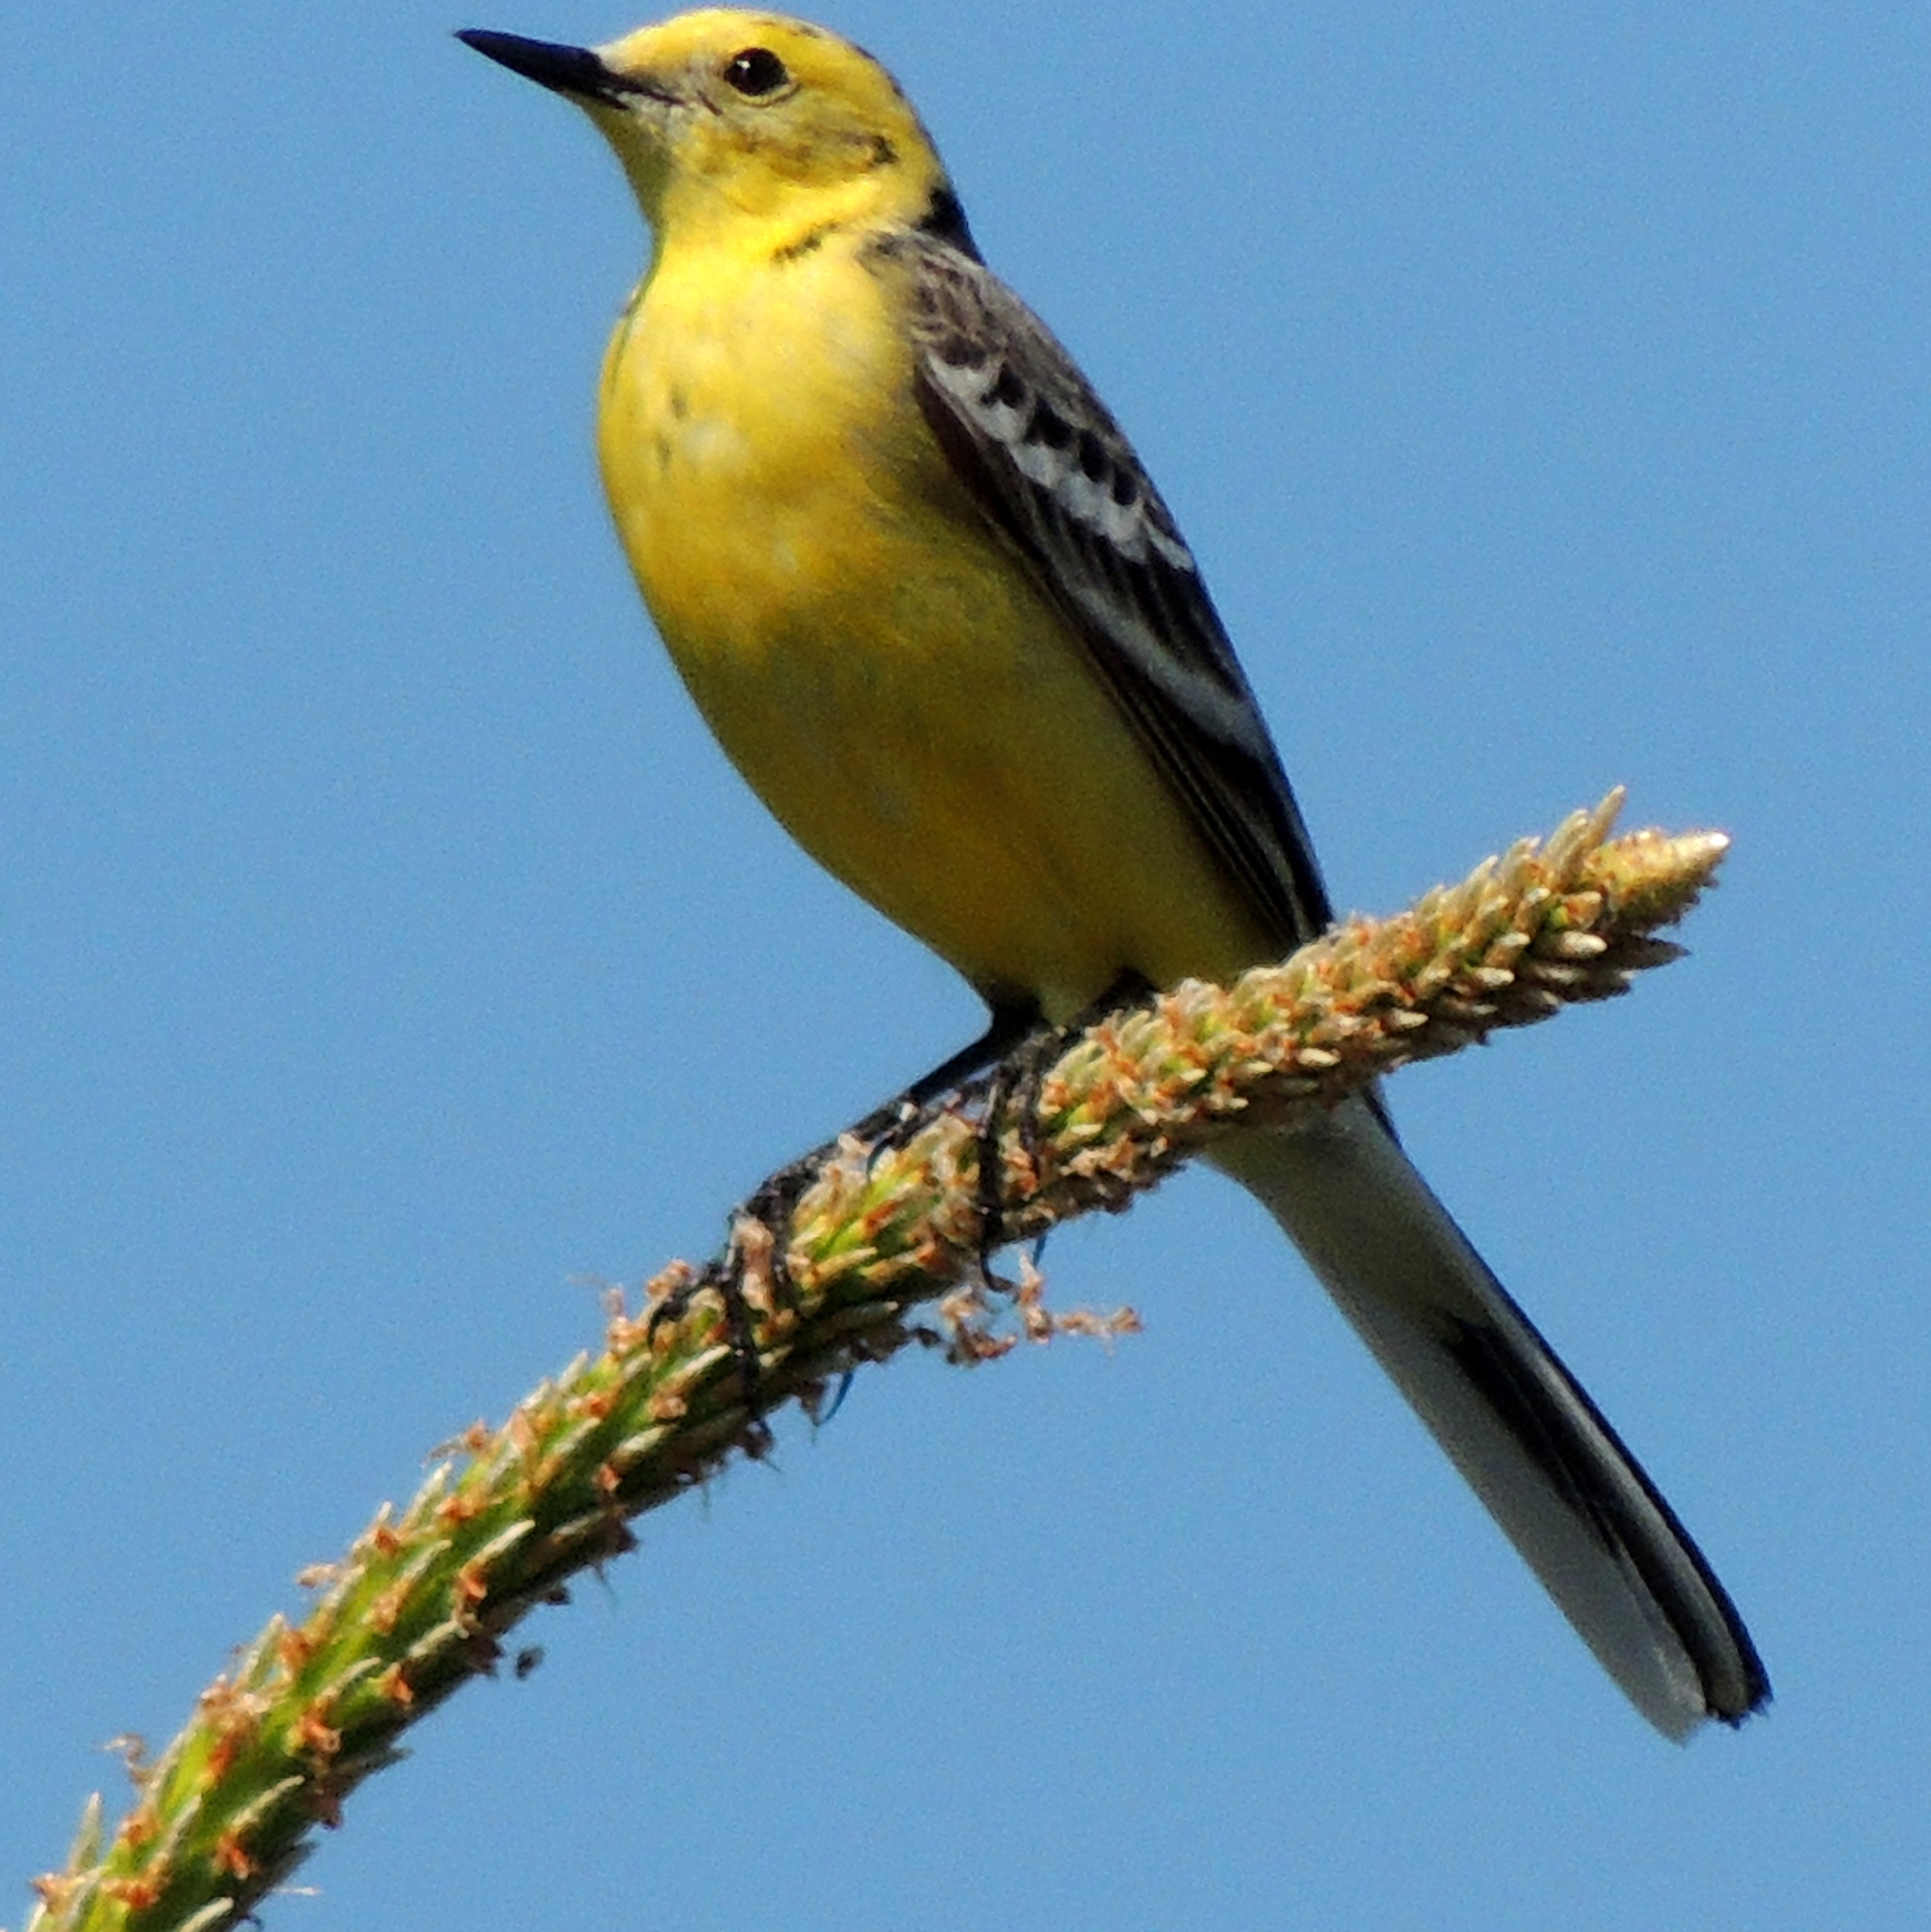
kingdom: Animalia
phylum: Chordata
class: Aves
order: Passeriformes
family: Motacillidae
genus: Motacilla
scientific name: Motacilla citreola
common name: Citrine wagtail
